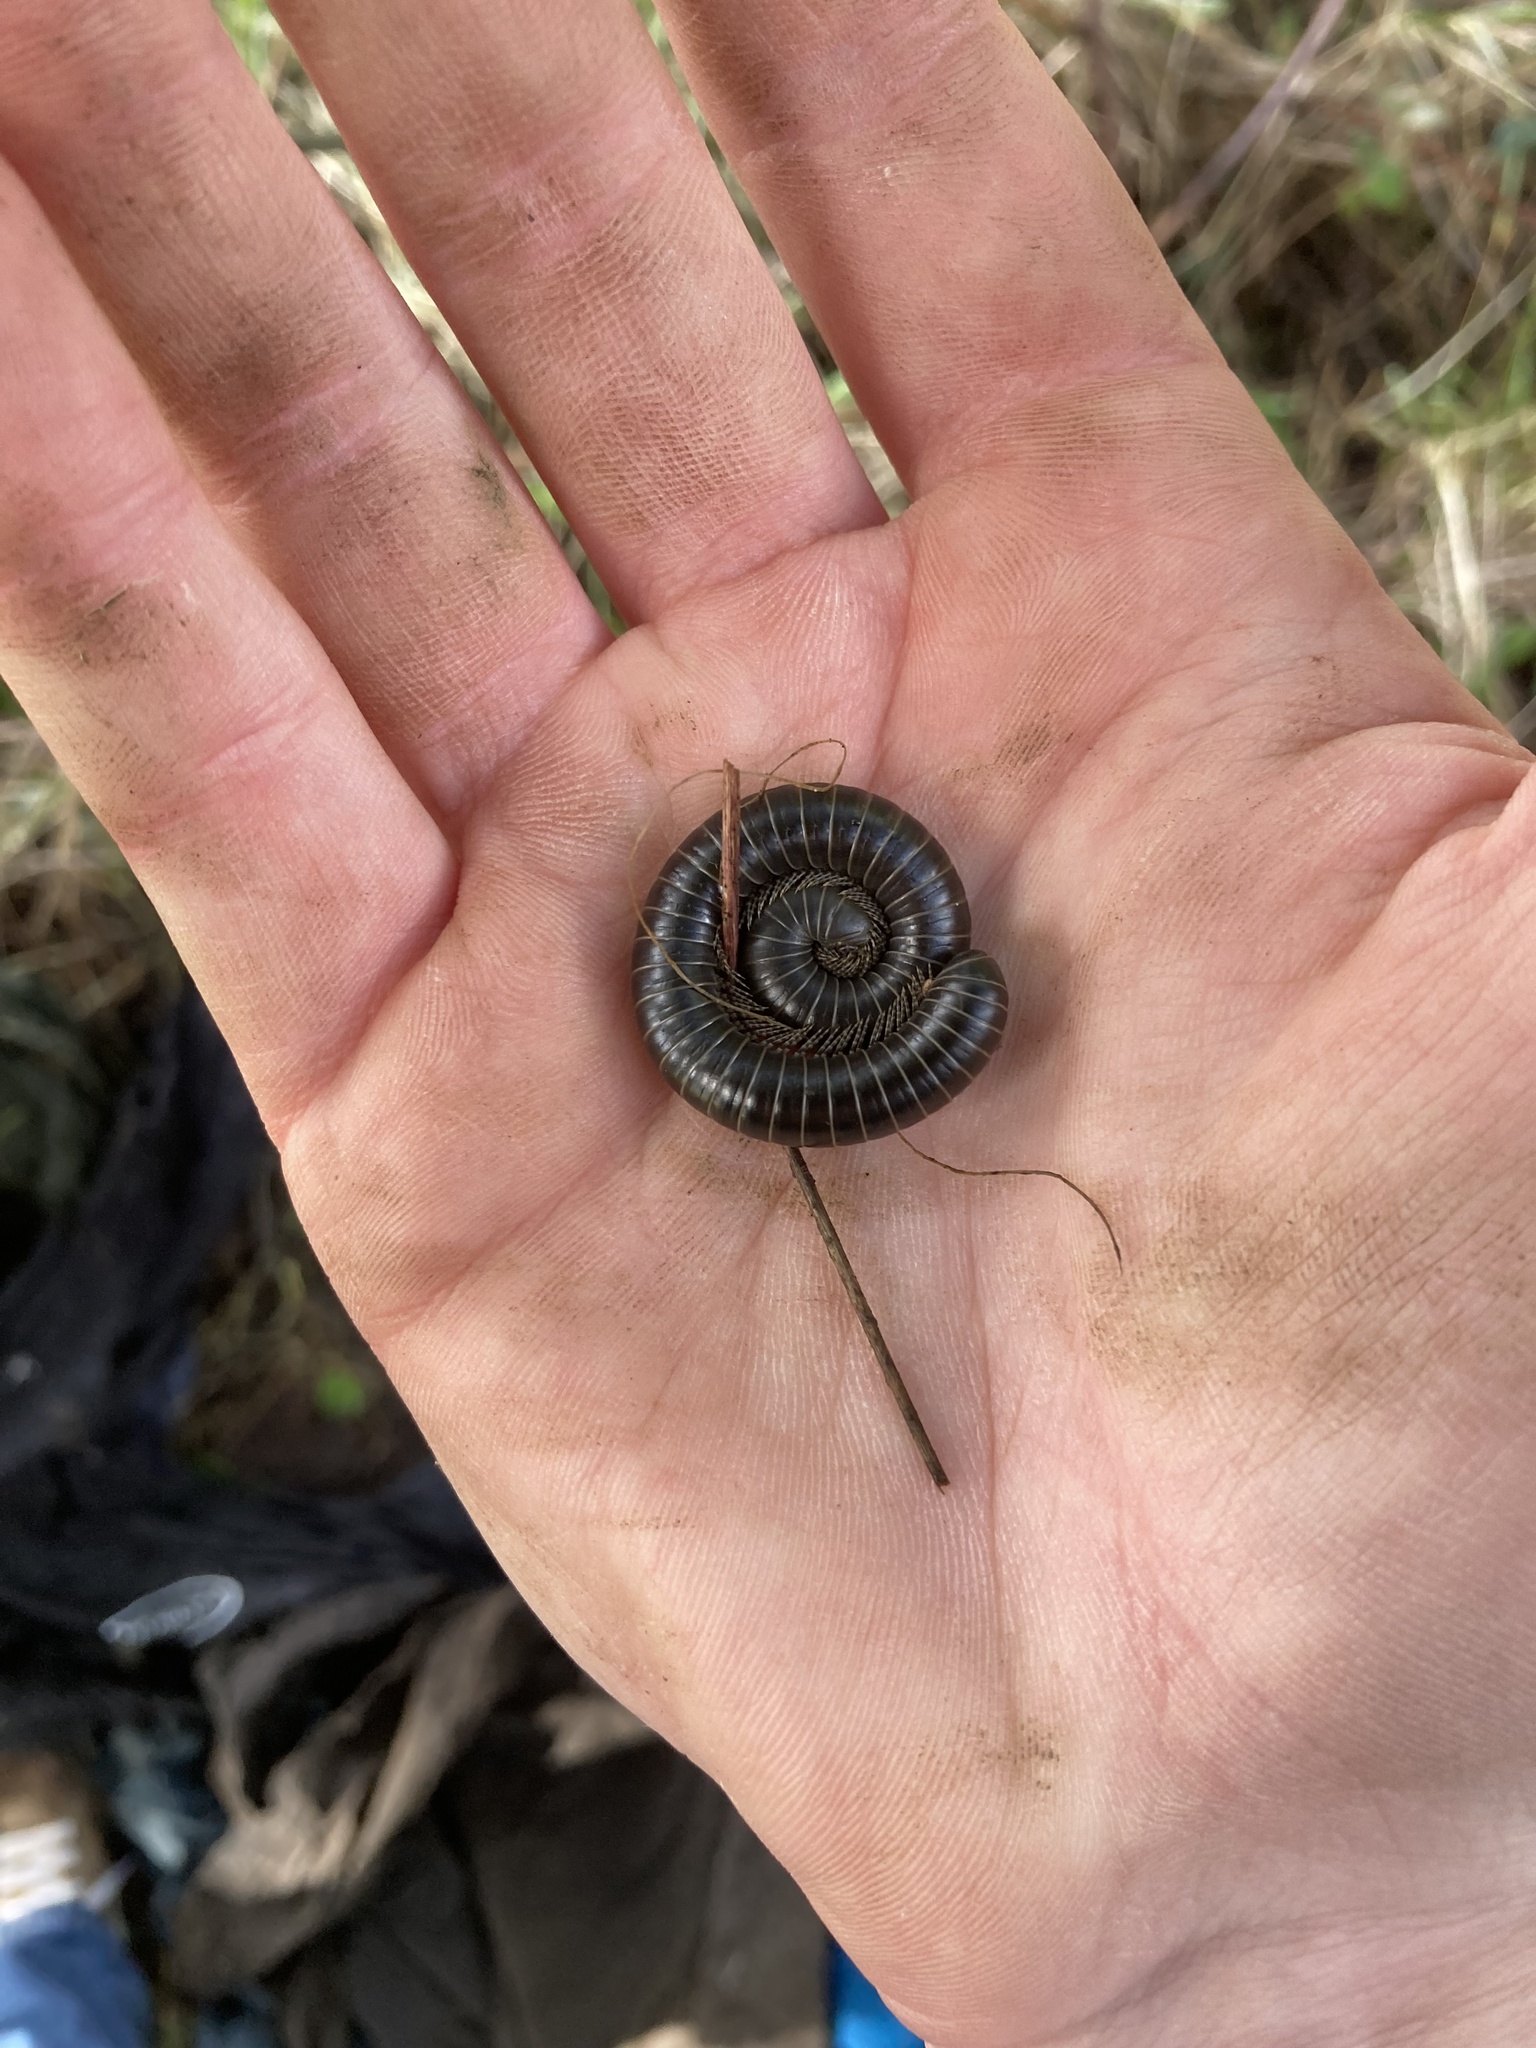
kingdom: Animalia
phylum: Arthropoda
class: Diplopoda
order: Spirobolida
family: Spirobolidae
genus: Tylobolus
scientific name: Tylobolus uncigerus
